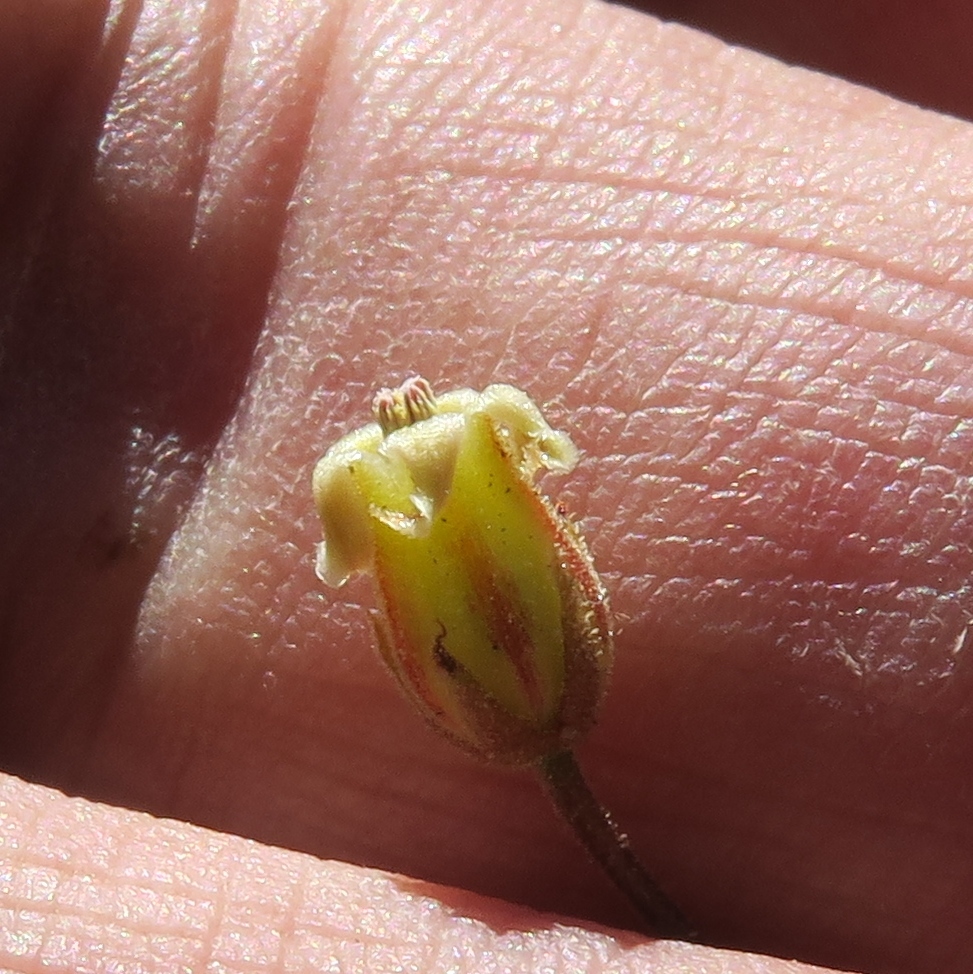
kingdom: Plantae
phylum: Tracheophyta
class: Magnoliopsida
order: Saxifragales
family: Crassulaceae
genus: Tylecodon
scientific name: Tylecodon reticulatus
